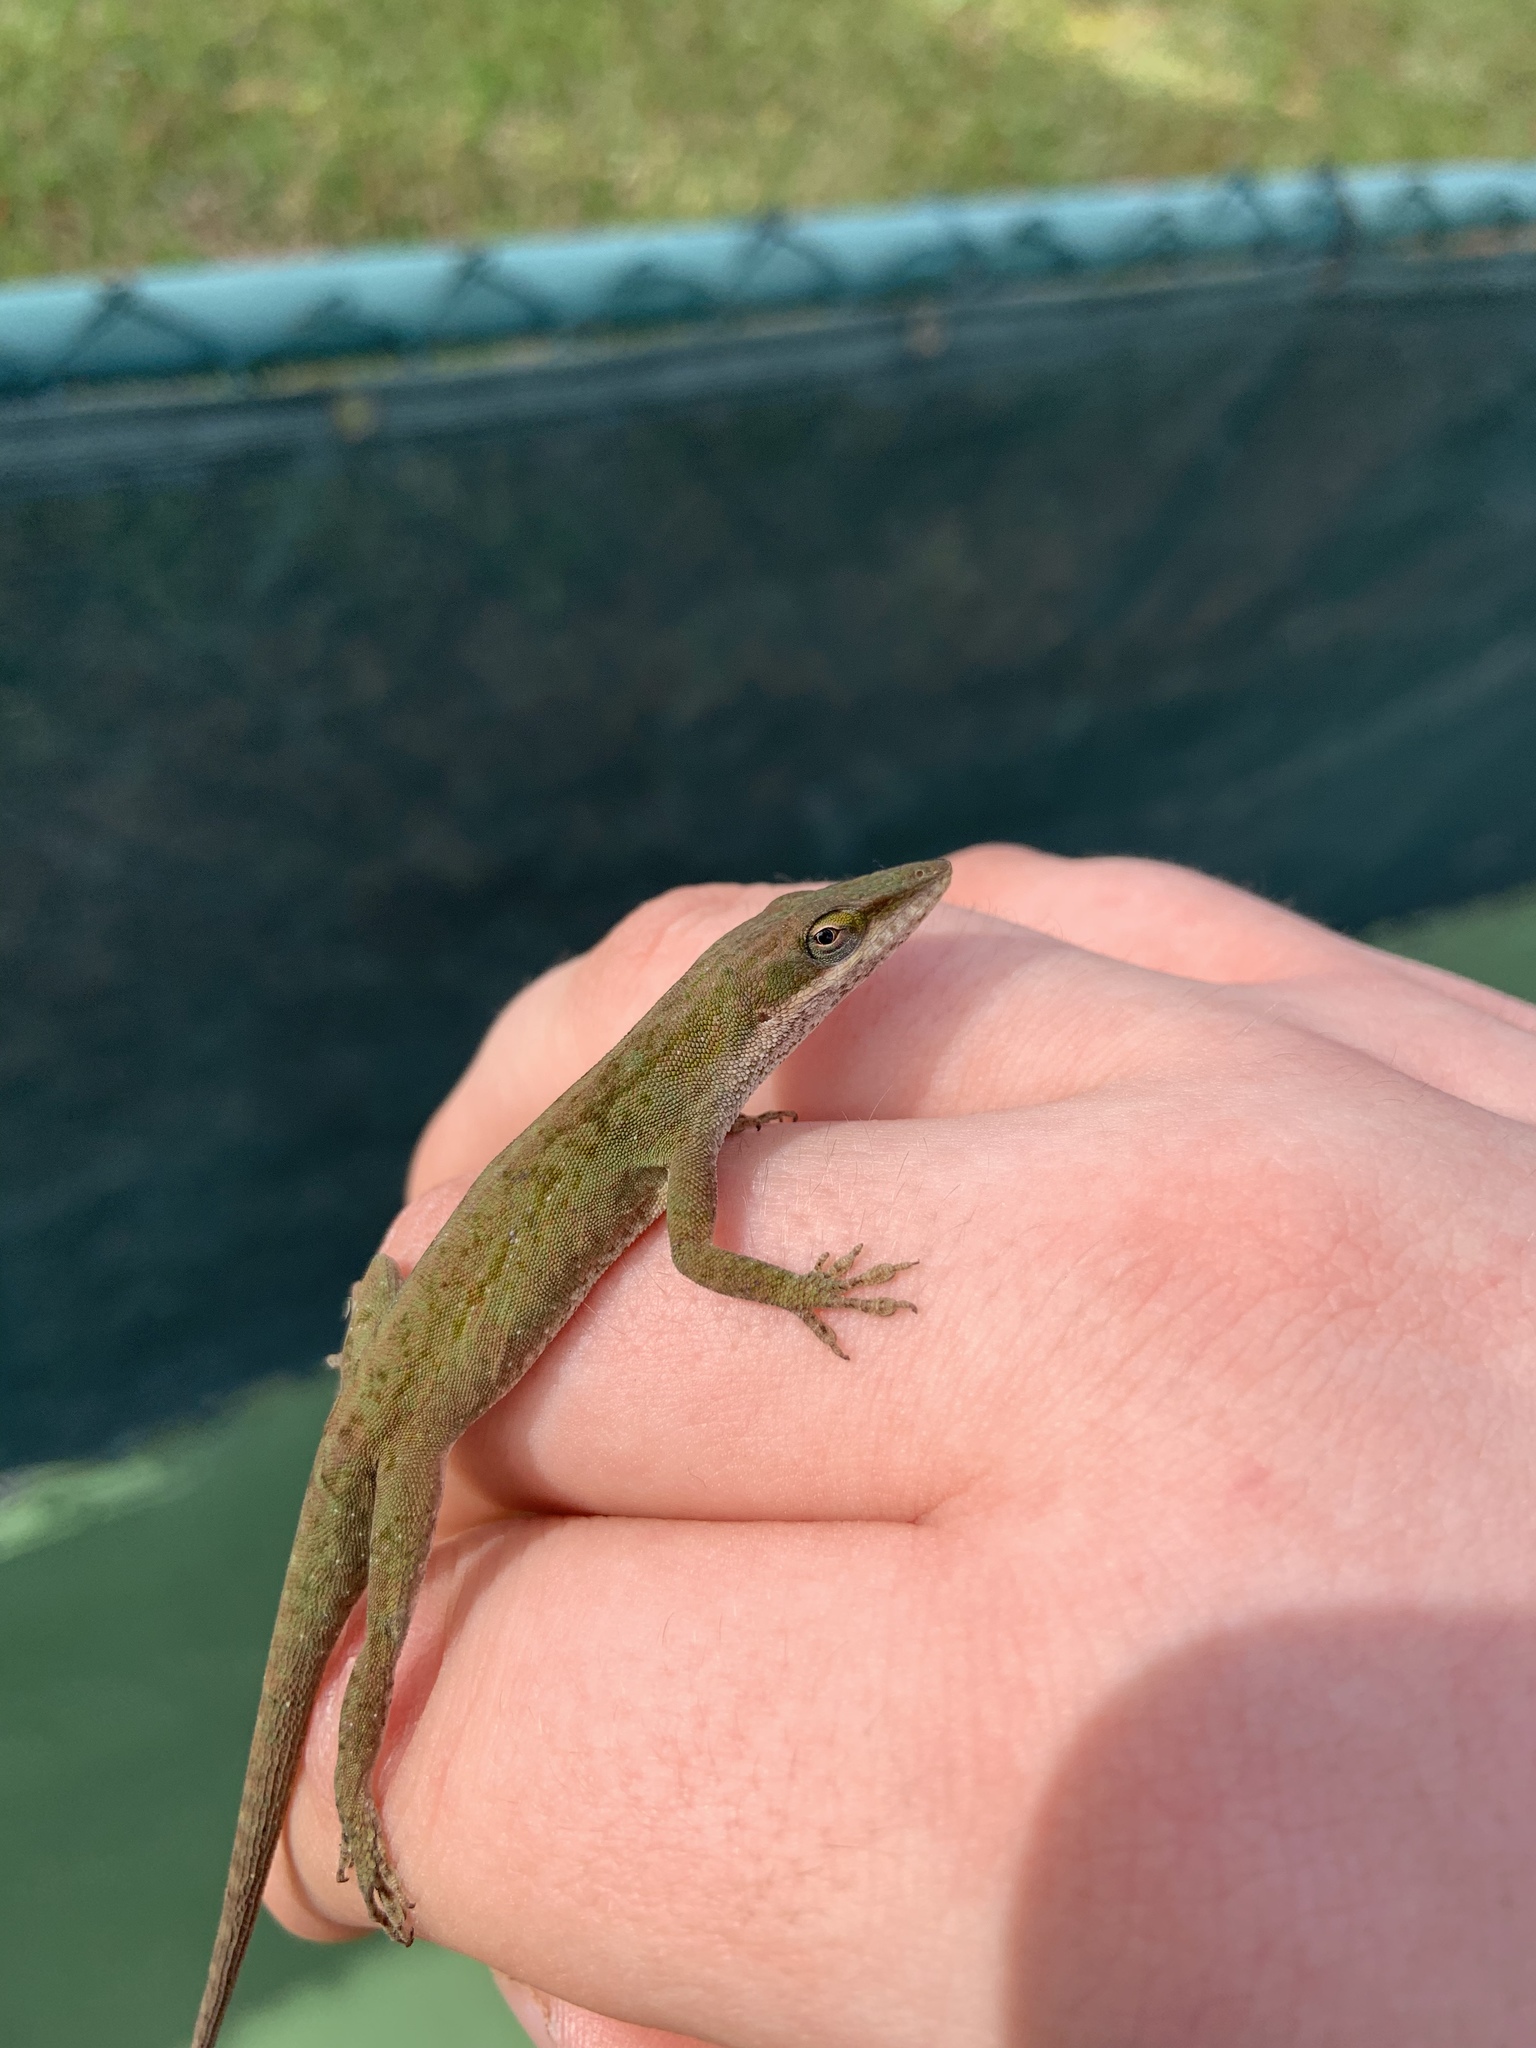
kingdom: Animalia
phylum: Chordata
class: Squamata
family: Dactyloidae
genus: Anolis
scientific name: Anolis carolinensis
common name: Green anole
